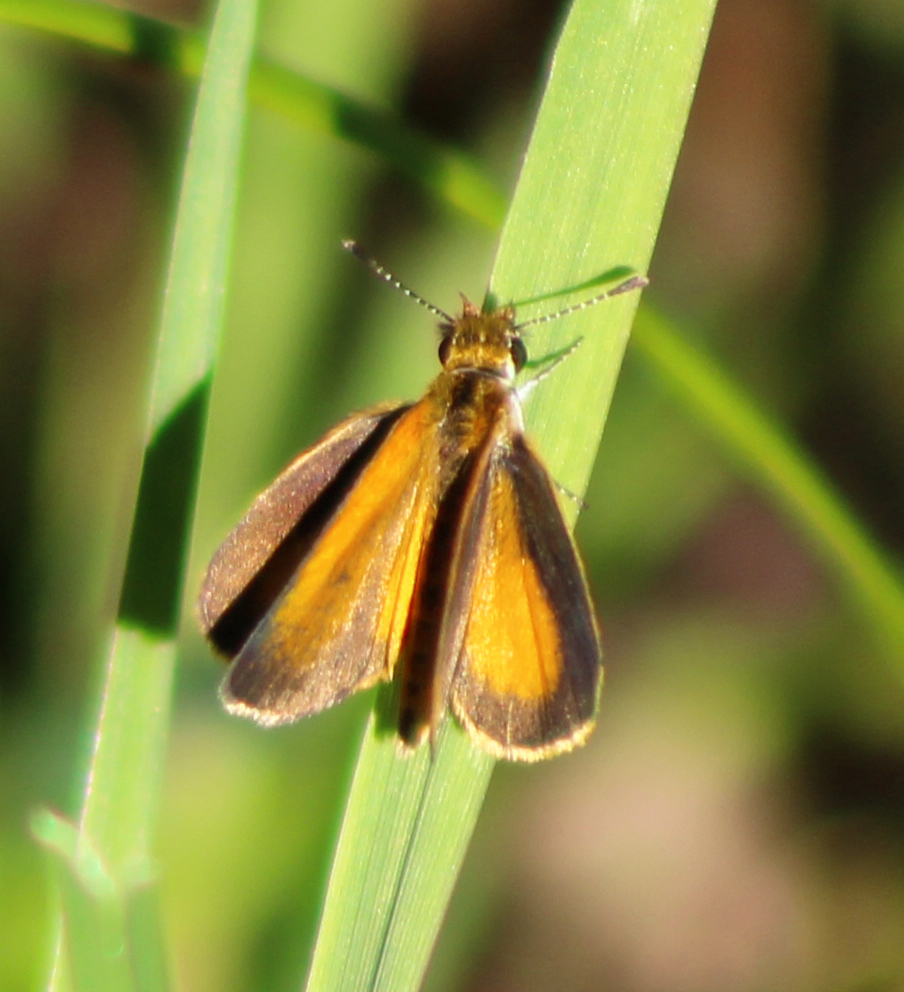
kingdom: Animalia
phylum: Arthropoda
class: Insecta
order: Lepidoptera
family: Hesperiidae
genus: Ancyloxypha
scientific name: Ancyloxypha numitor
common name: Least skipper
